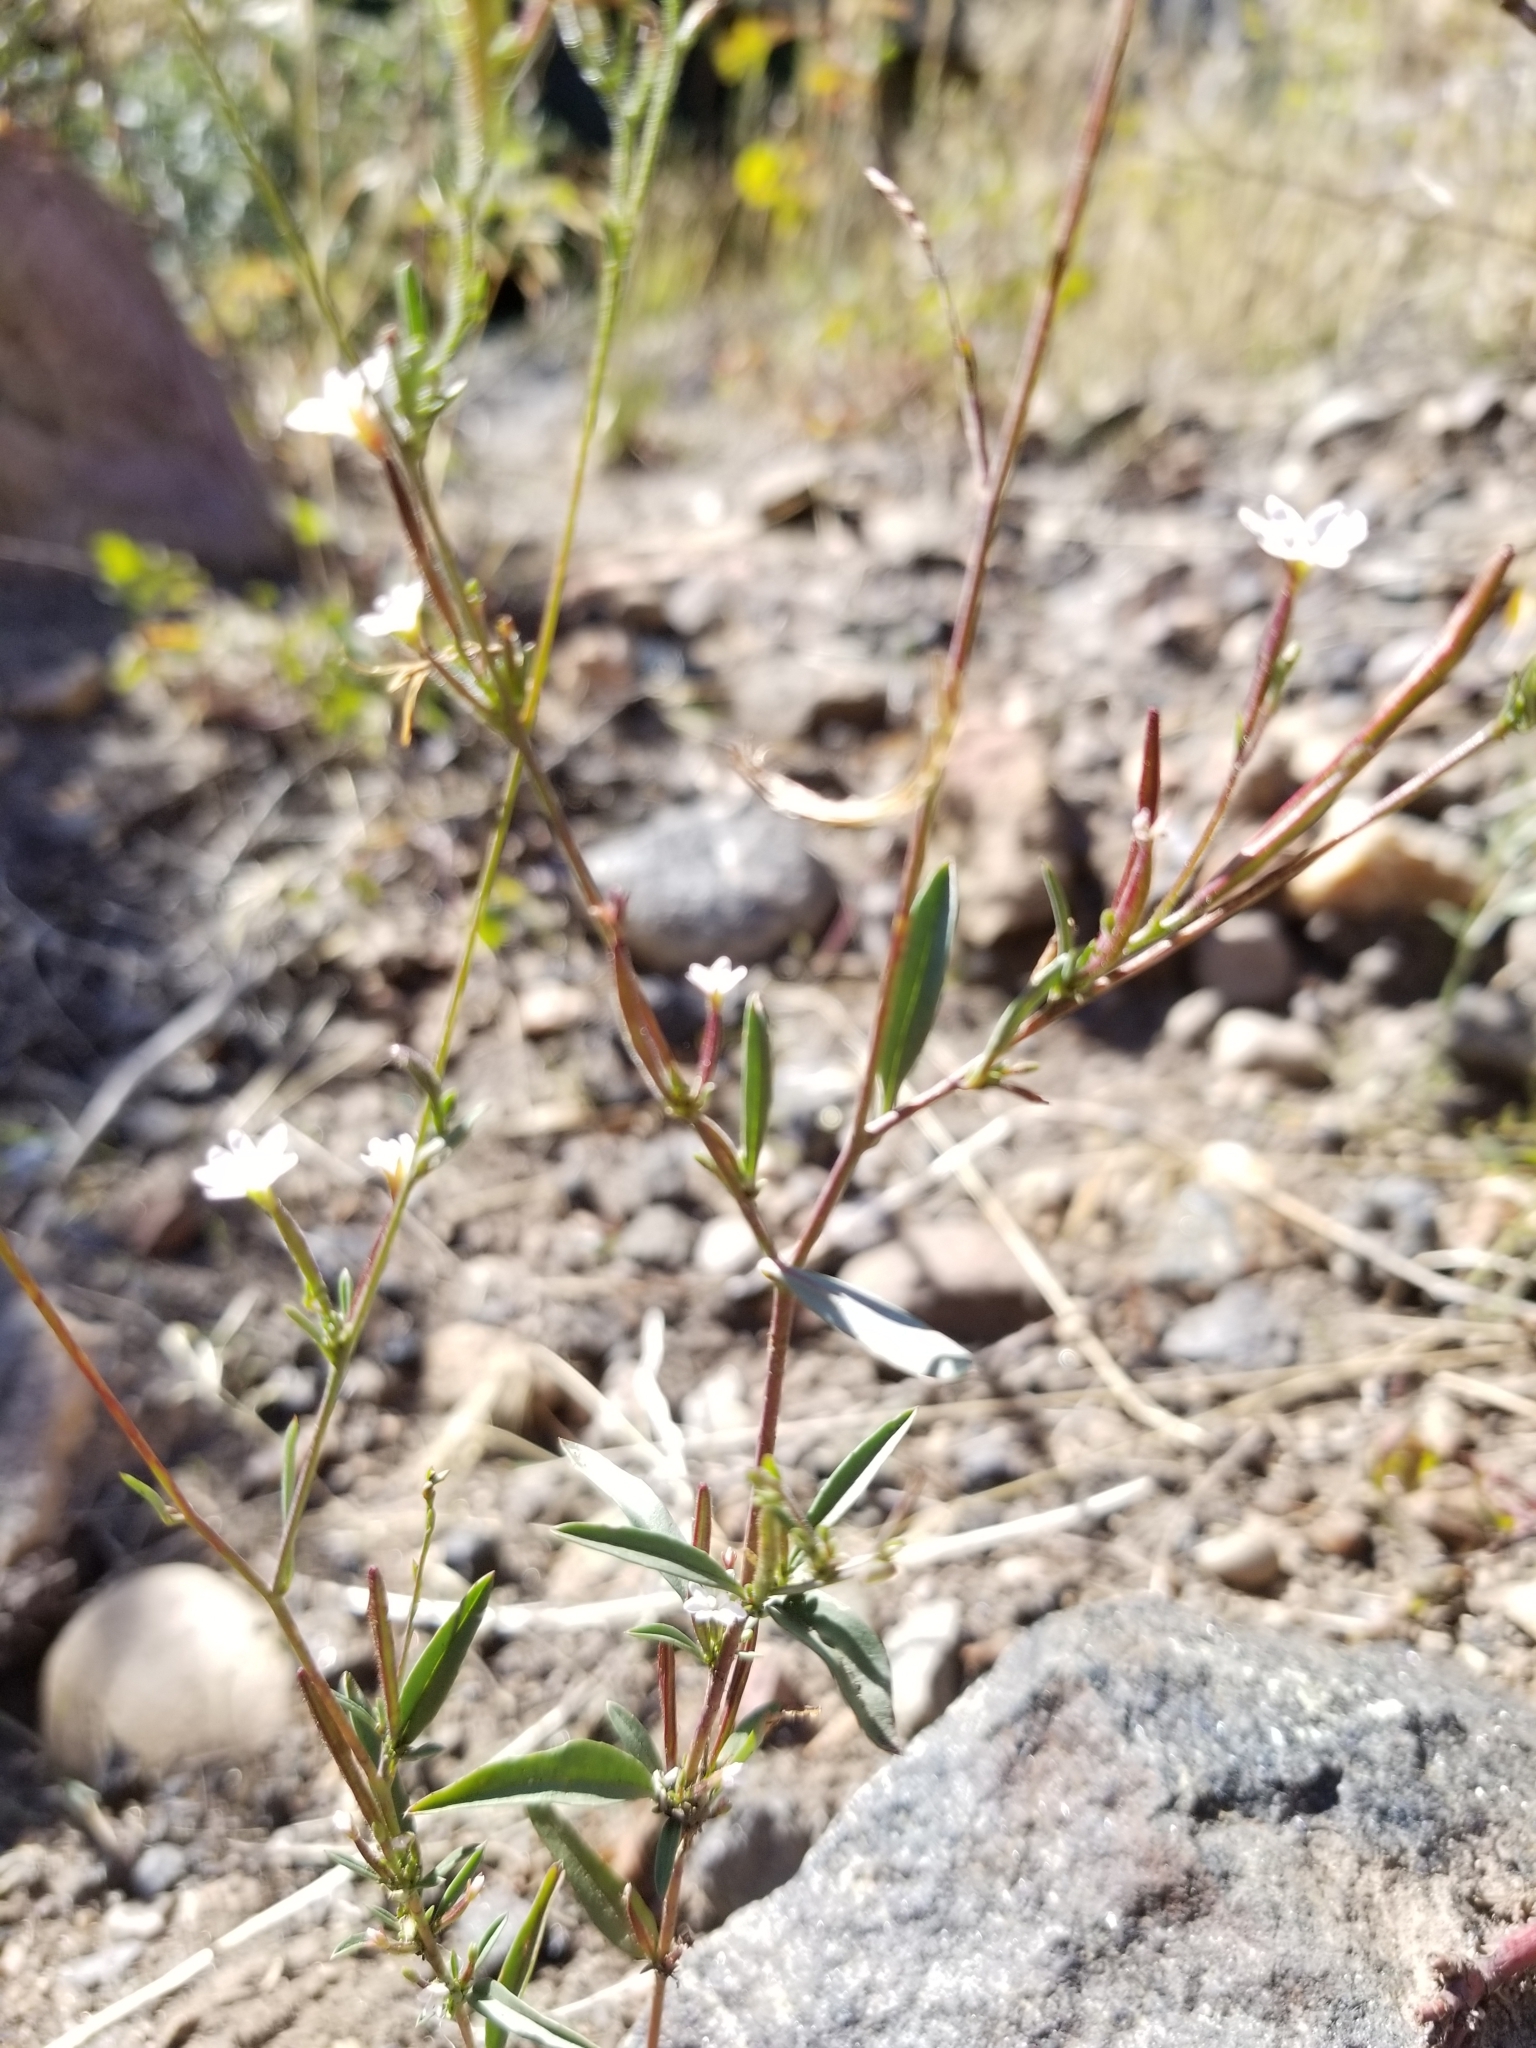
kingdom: Plantae
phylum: Tracheophyta
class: Magnoliopsida
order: Myrtales
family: Onagraceae
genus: Epilobium
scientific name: Epilobium brachycarpum
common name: Annual willowherb
